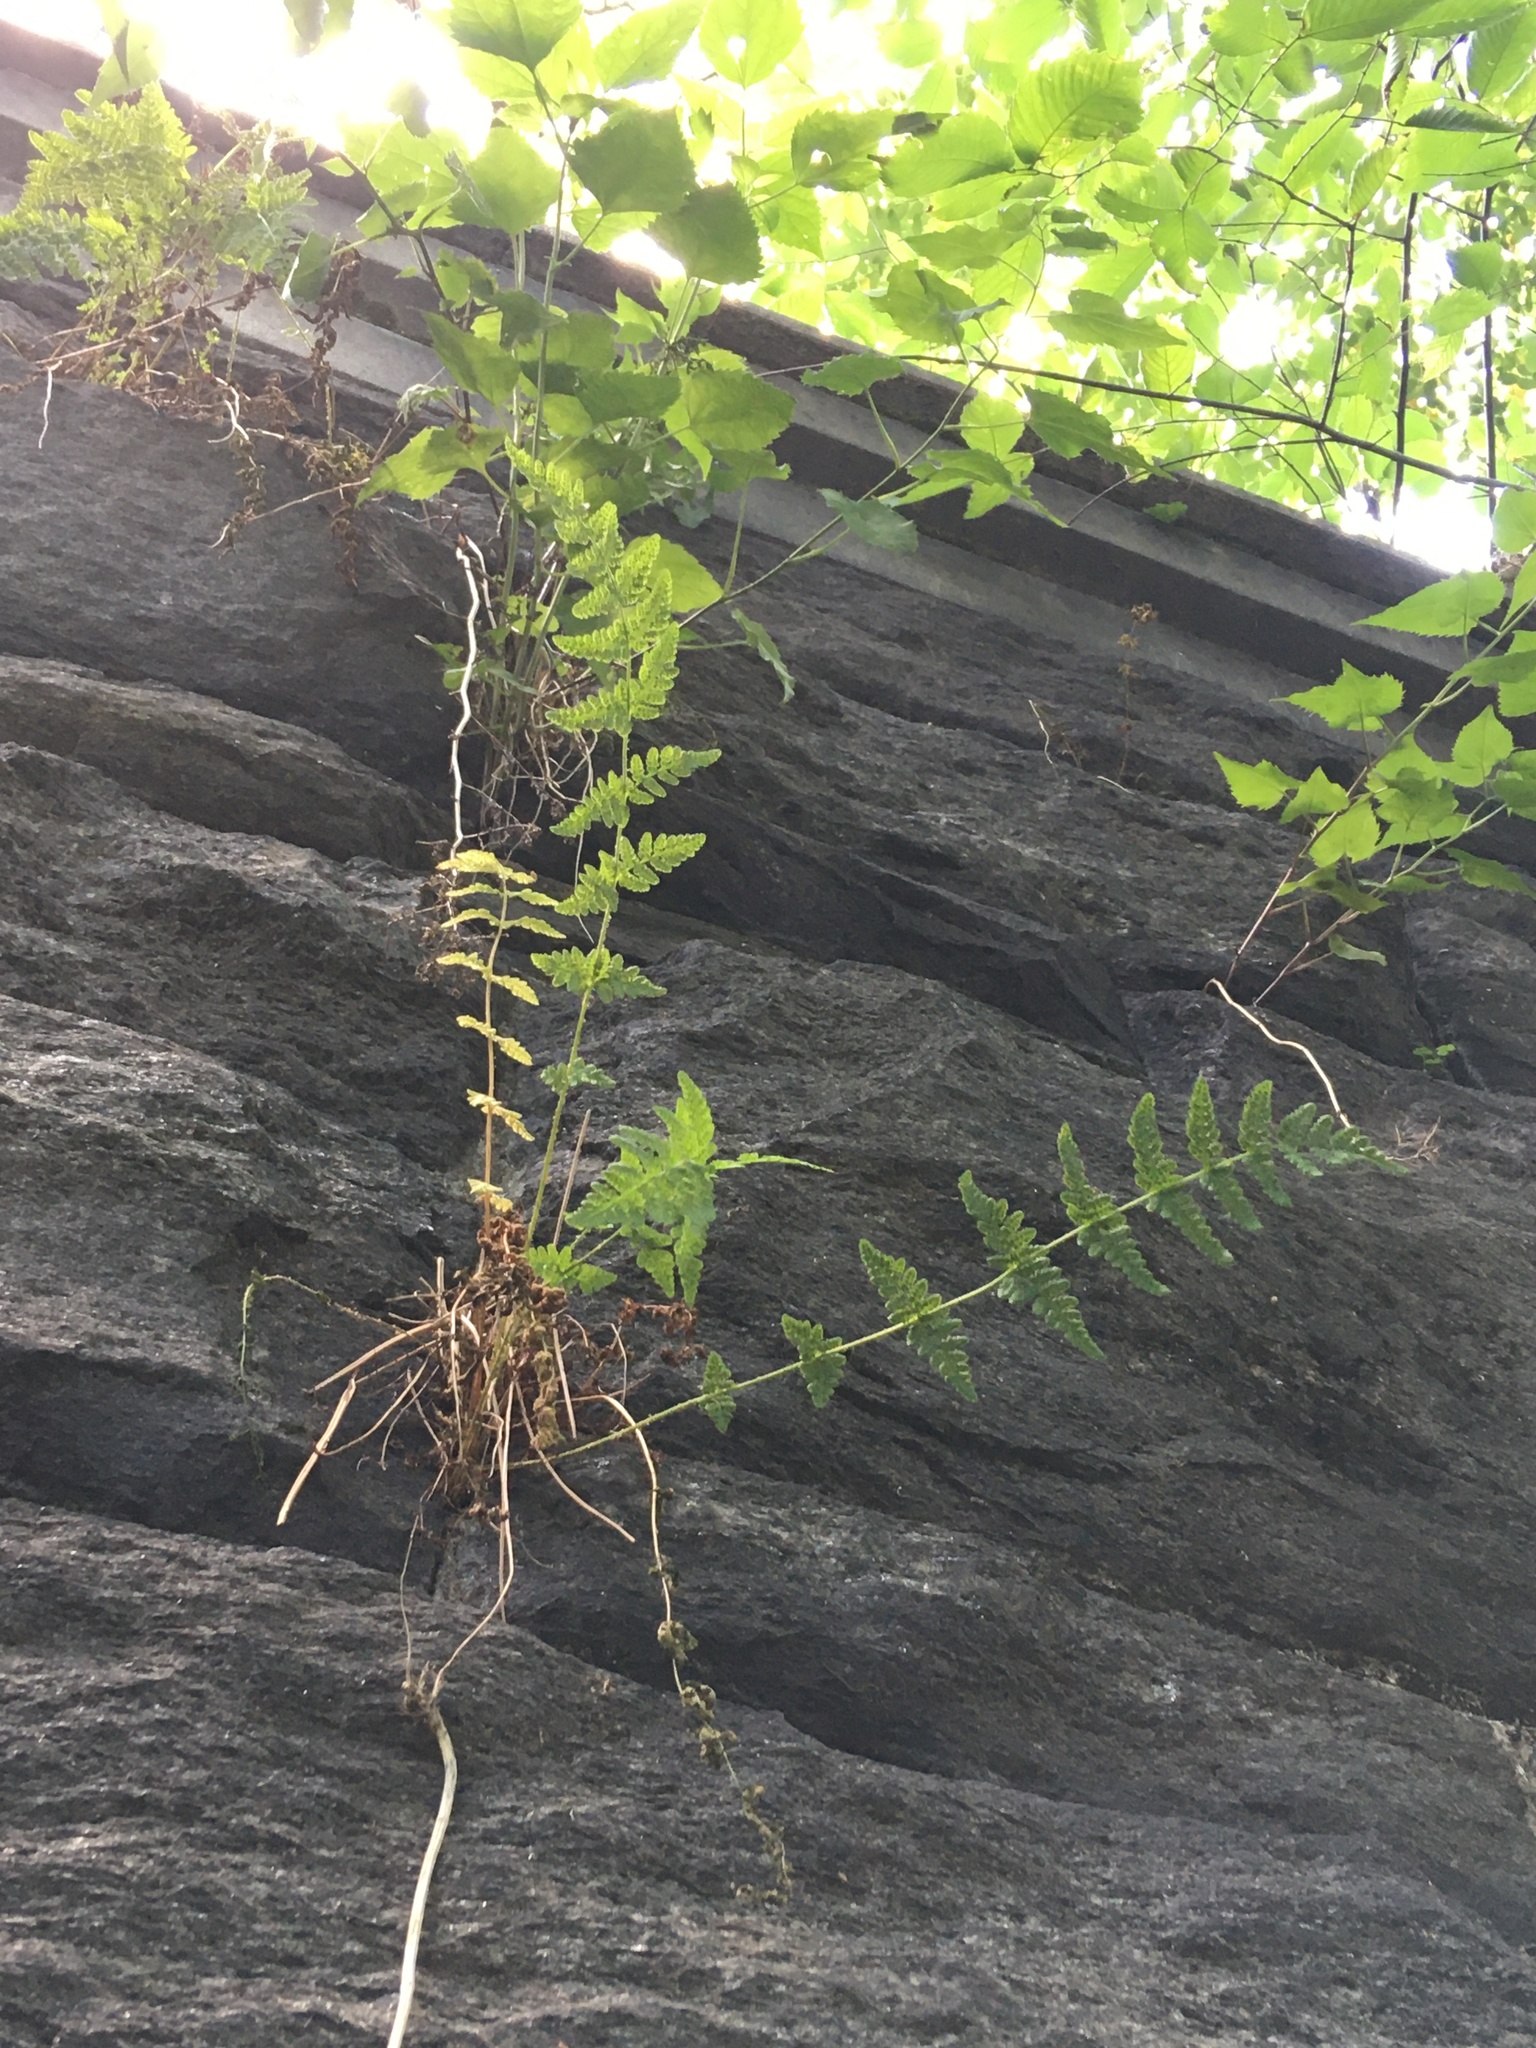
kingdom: Plantae
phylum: Tracheophyta
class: Polypodiopsida
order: Polypodiales
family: Woodsiaceae
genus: Physematium
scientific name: Physematium obtusum
